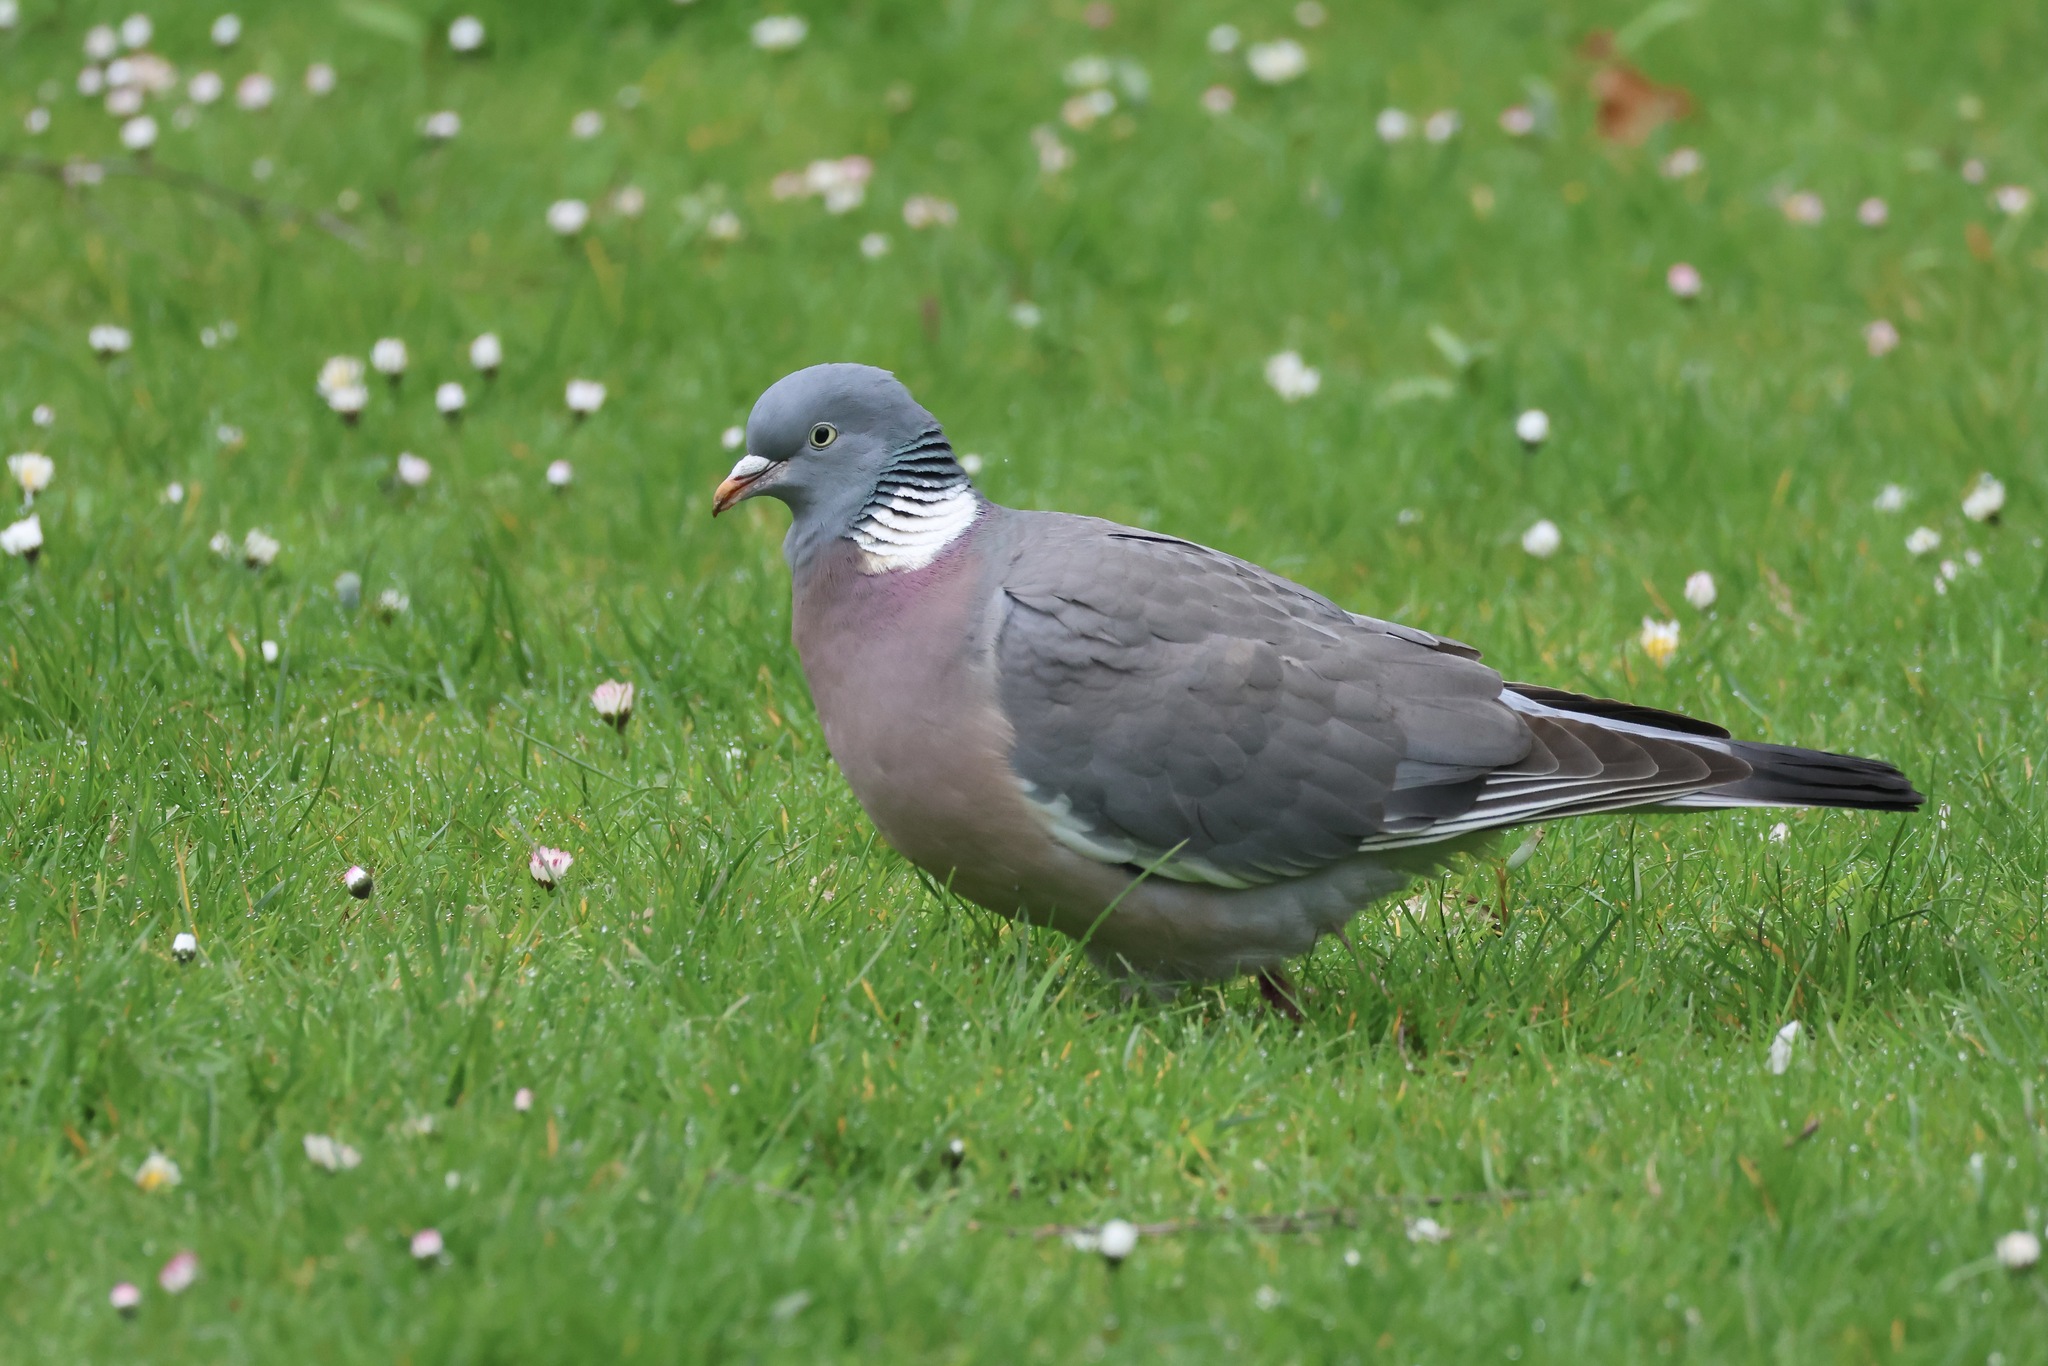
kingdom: Animalia
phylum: Chordata
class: Aves
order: Columbiformes
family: Columbidae
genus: Columba
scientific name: Columba palumbus
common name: Common wood pigeon
